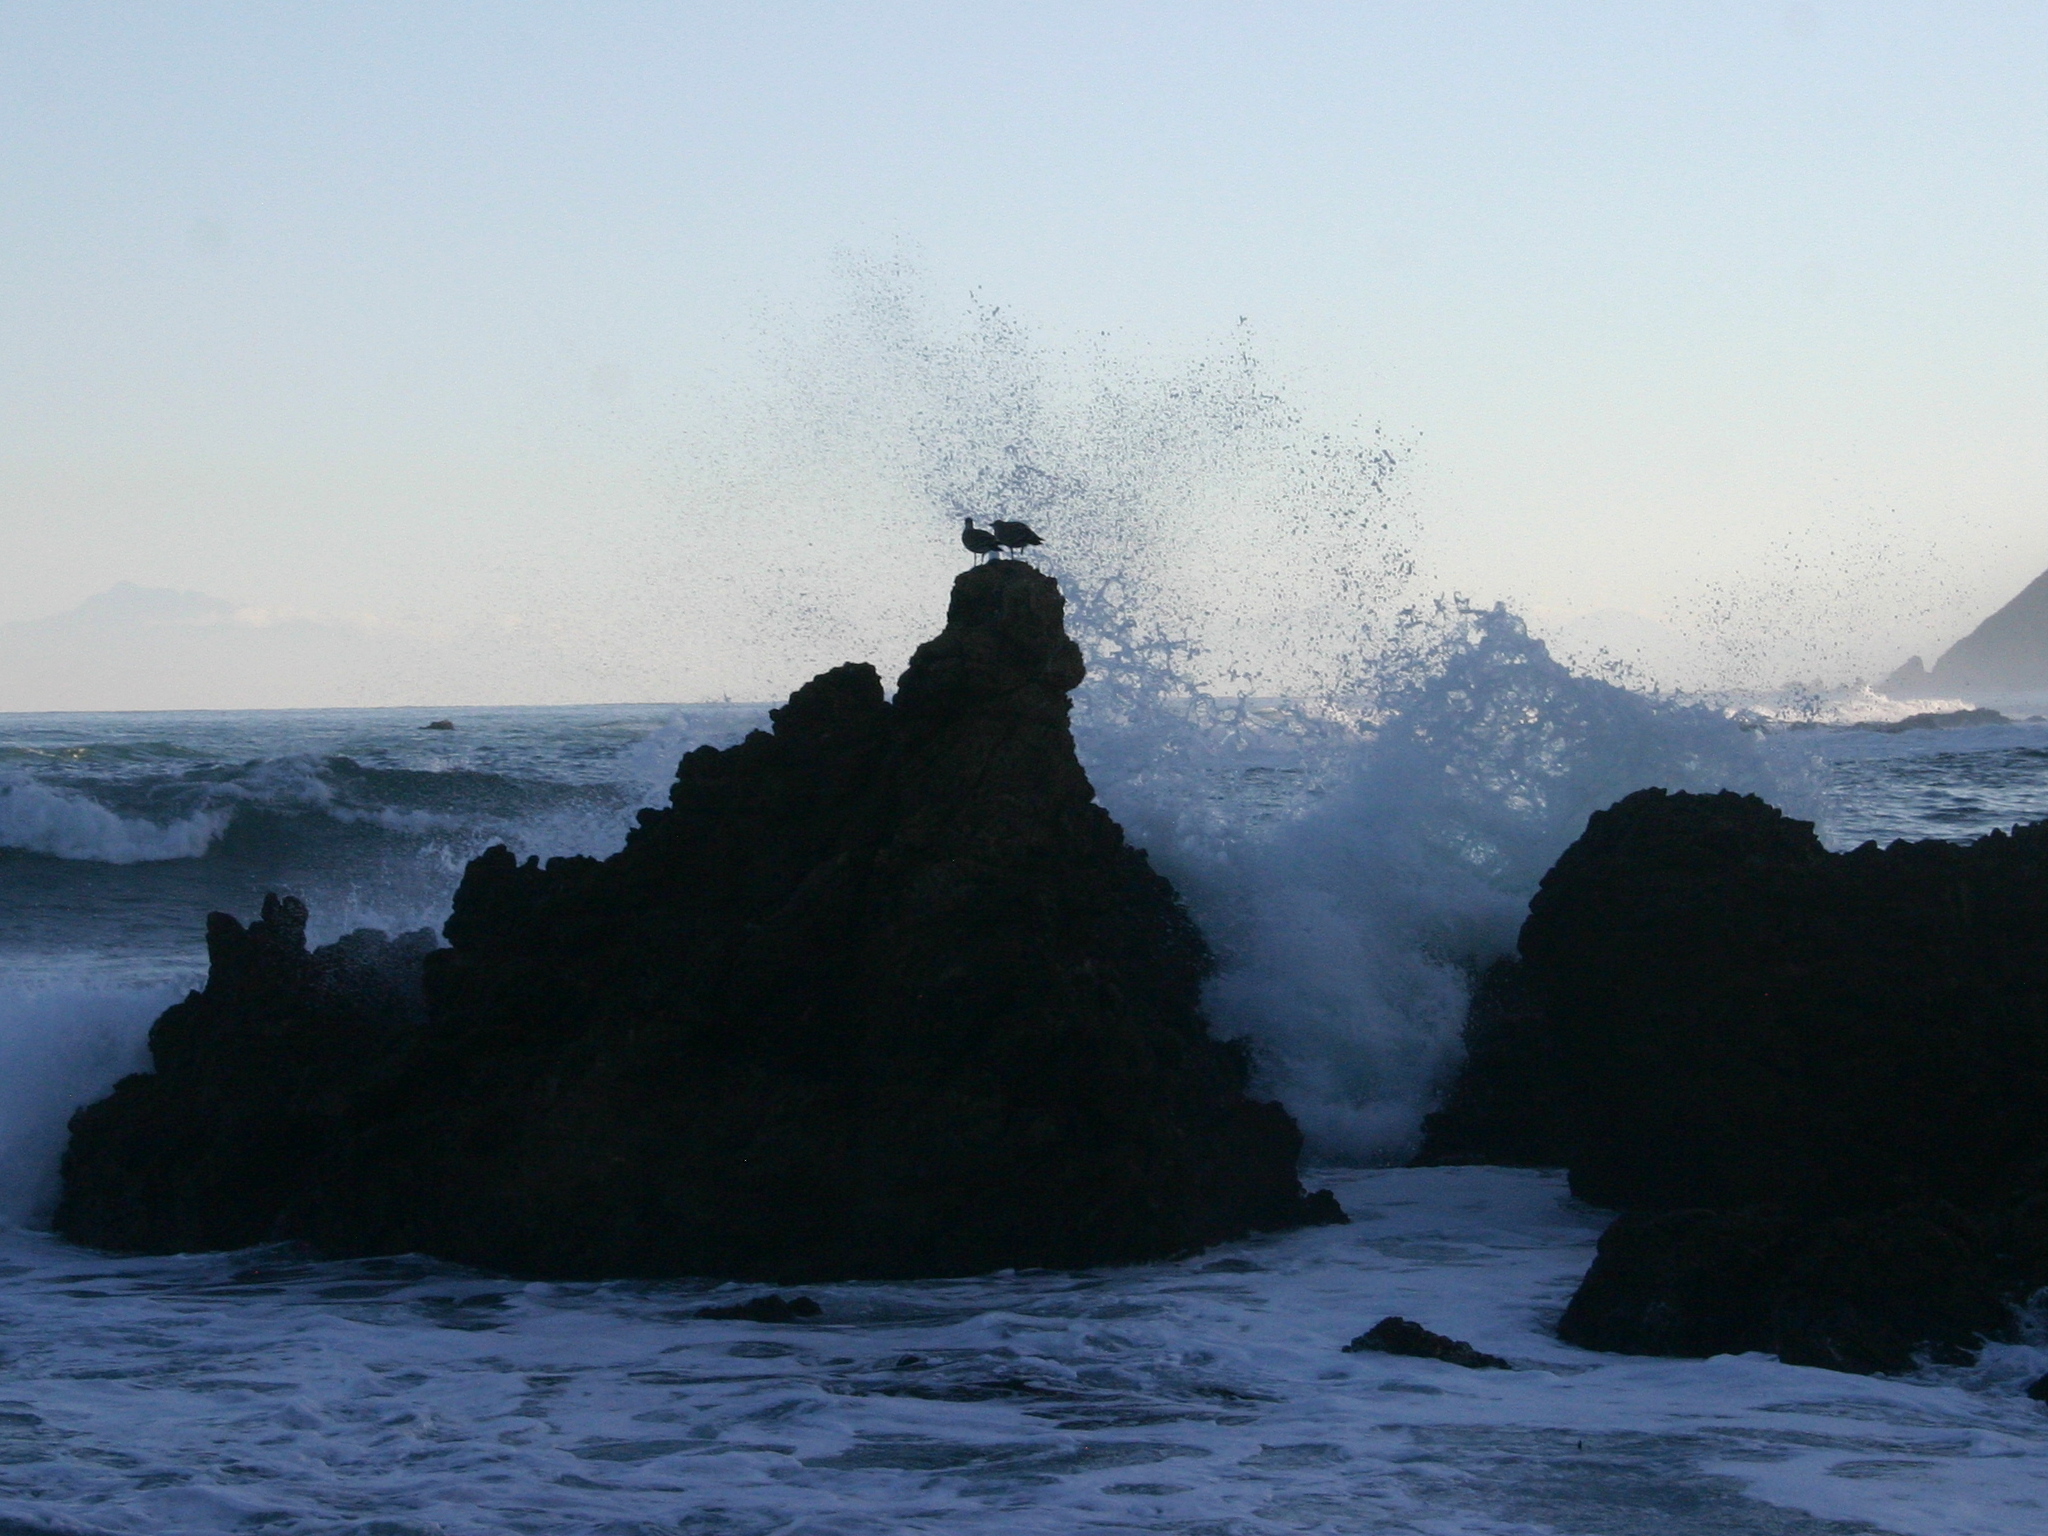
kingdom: Animalia
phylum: Chordata
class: Aves
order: Charadriiformes
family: Laridae
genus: Larus
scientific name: Larus dominicanus
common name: Kelp gull
